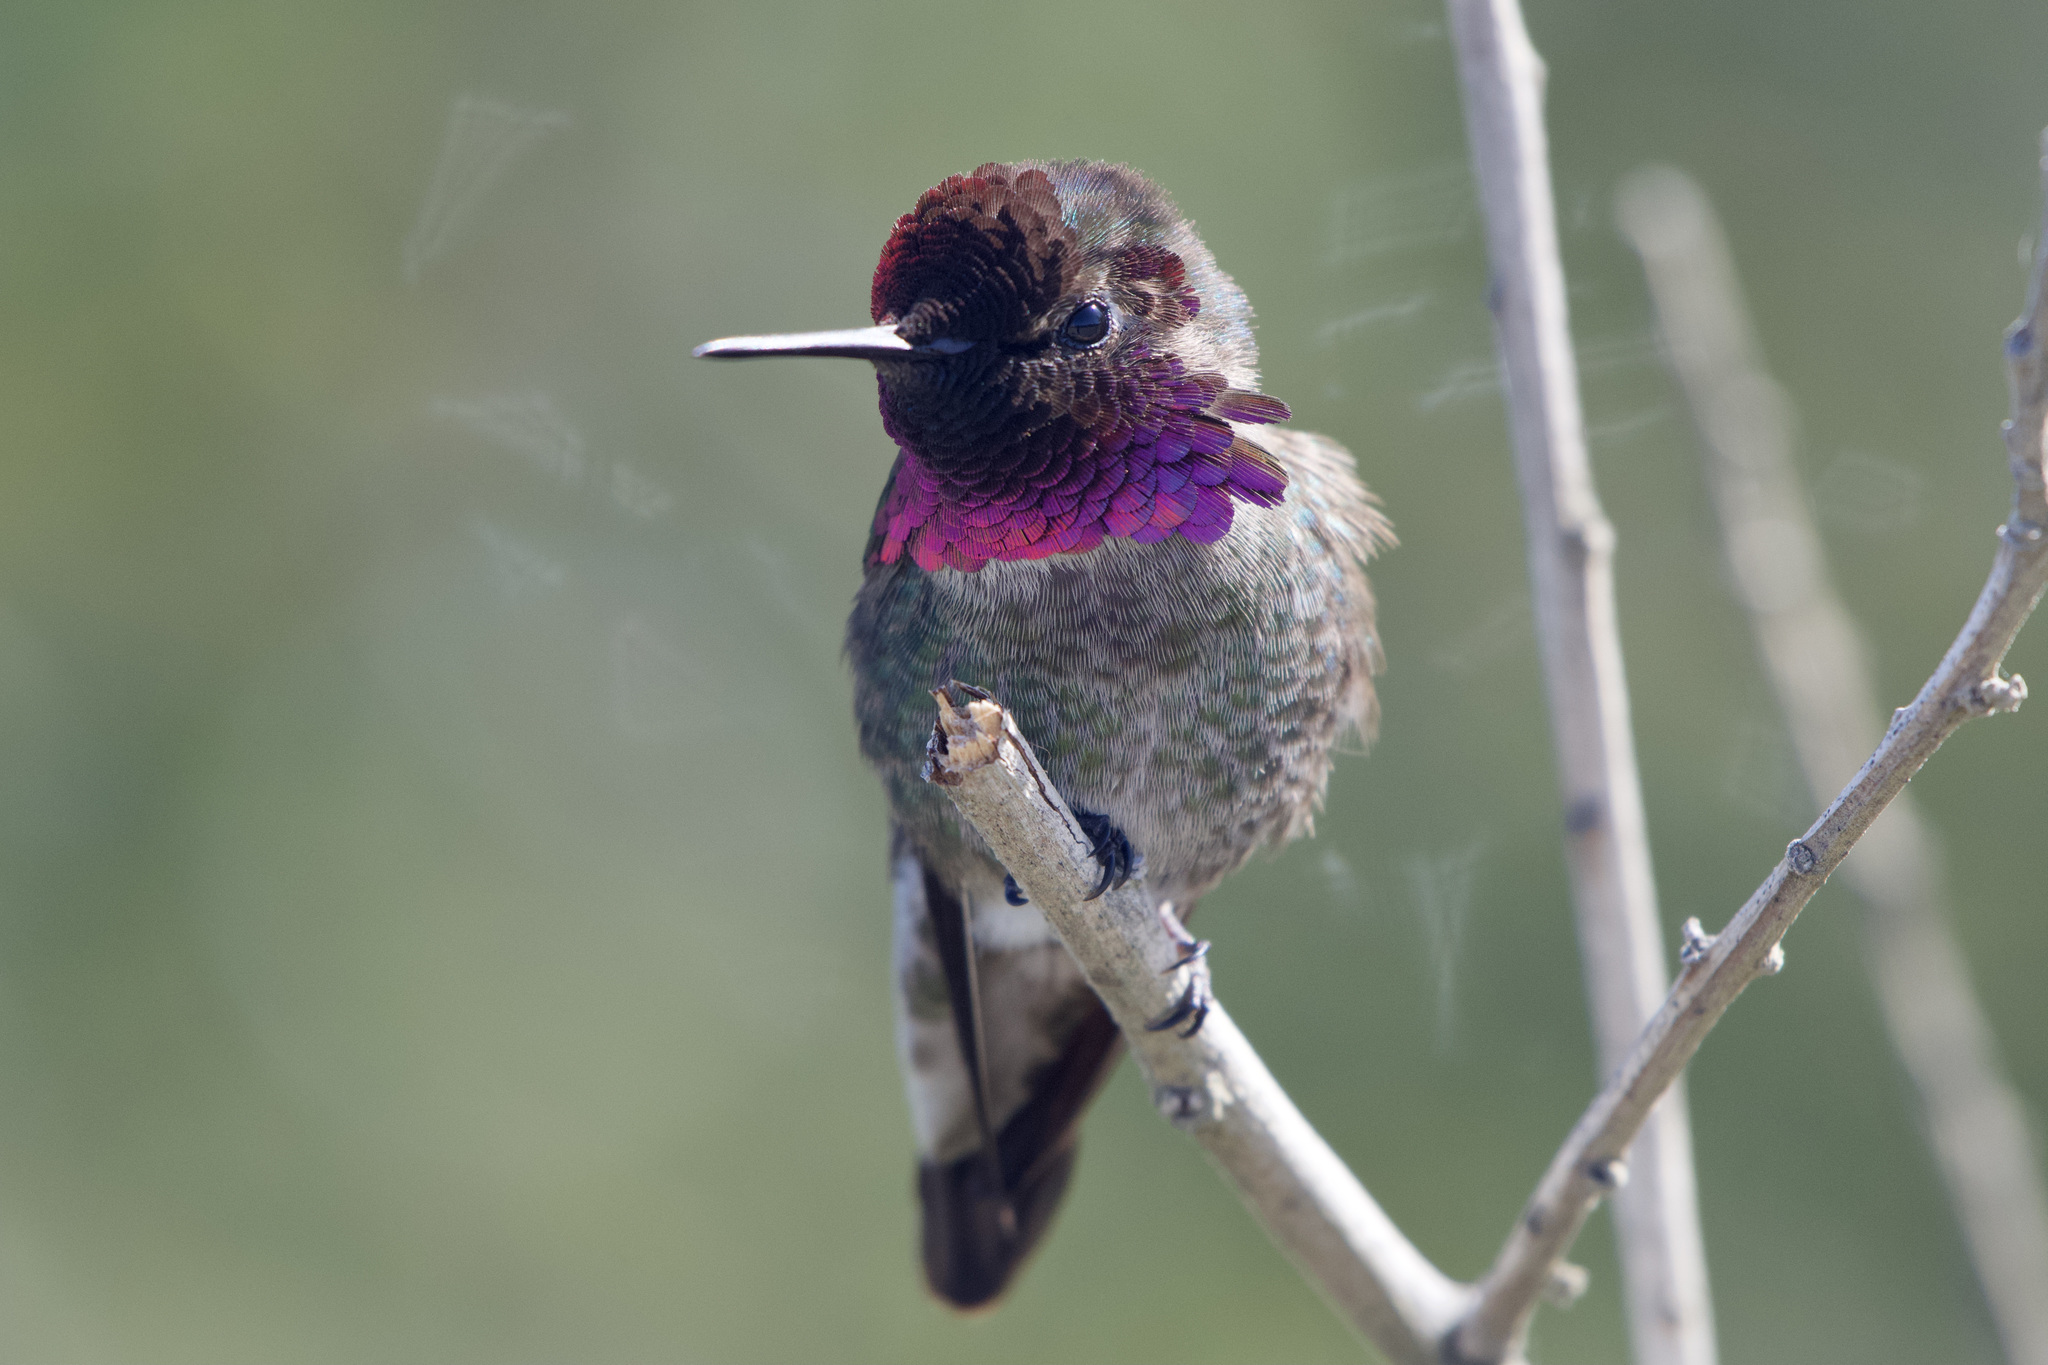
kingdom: Animalia
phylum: Chordata
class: Aves
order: Apodiformes
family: Trochilidae
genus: Calypte
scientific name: Calypte anna
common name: Anna's hummingbird
